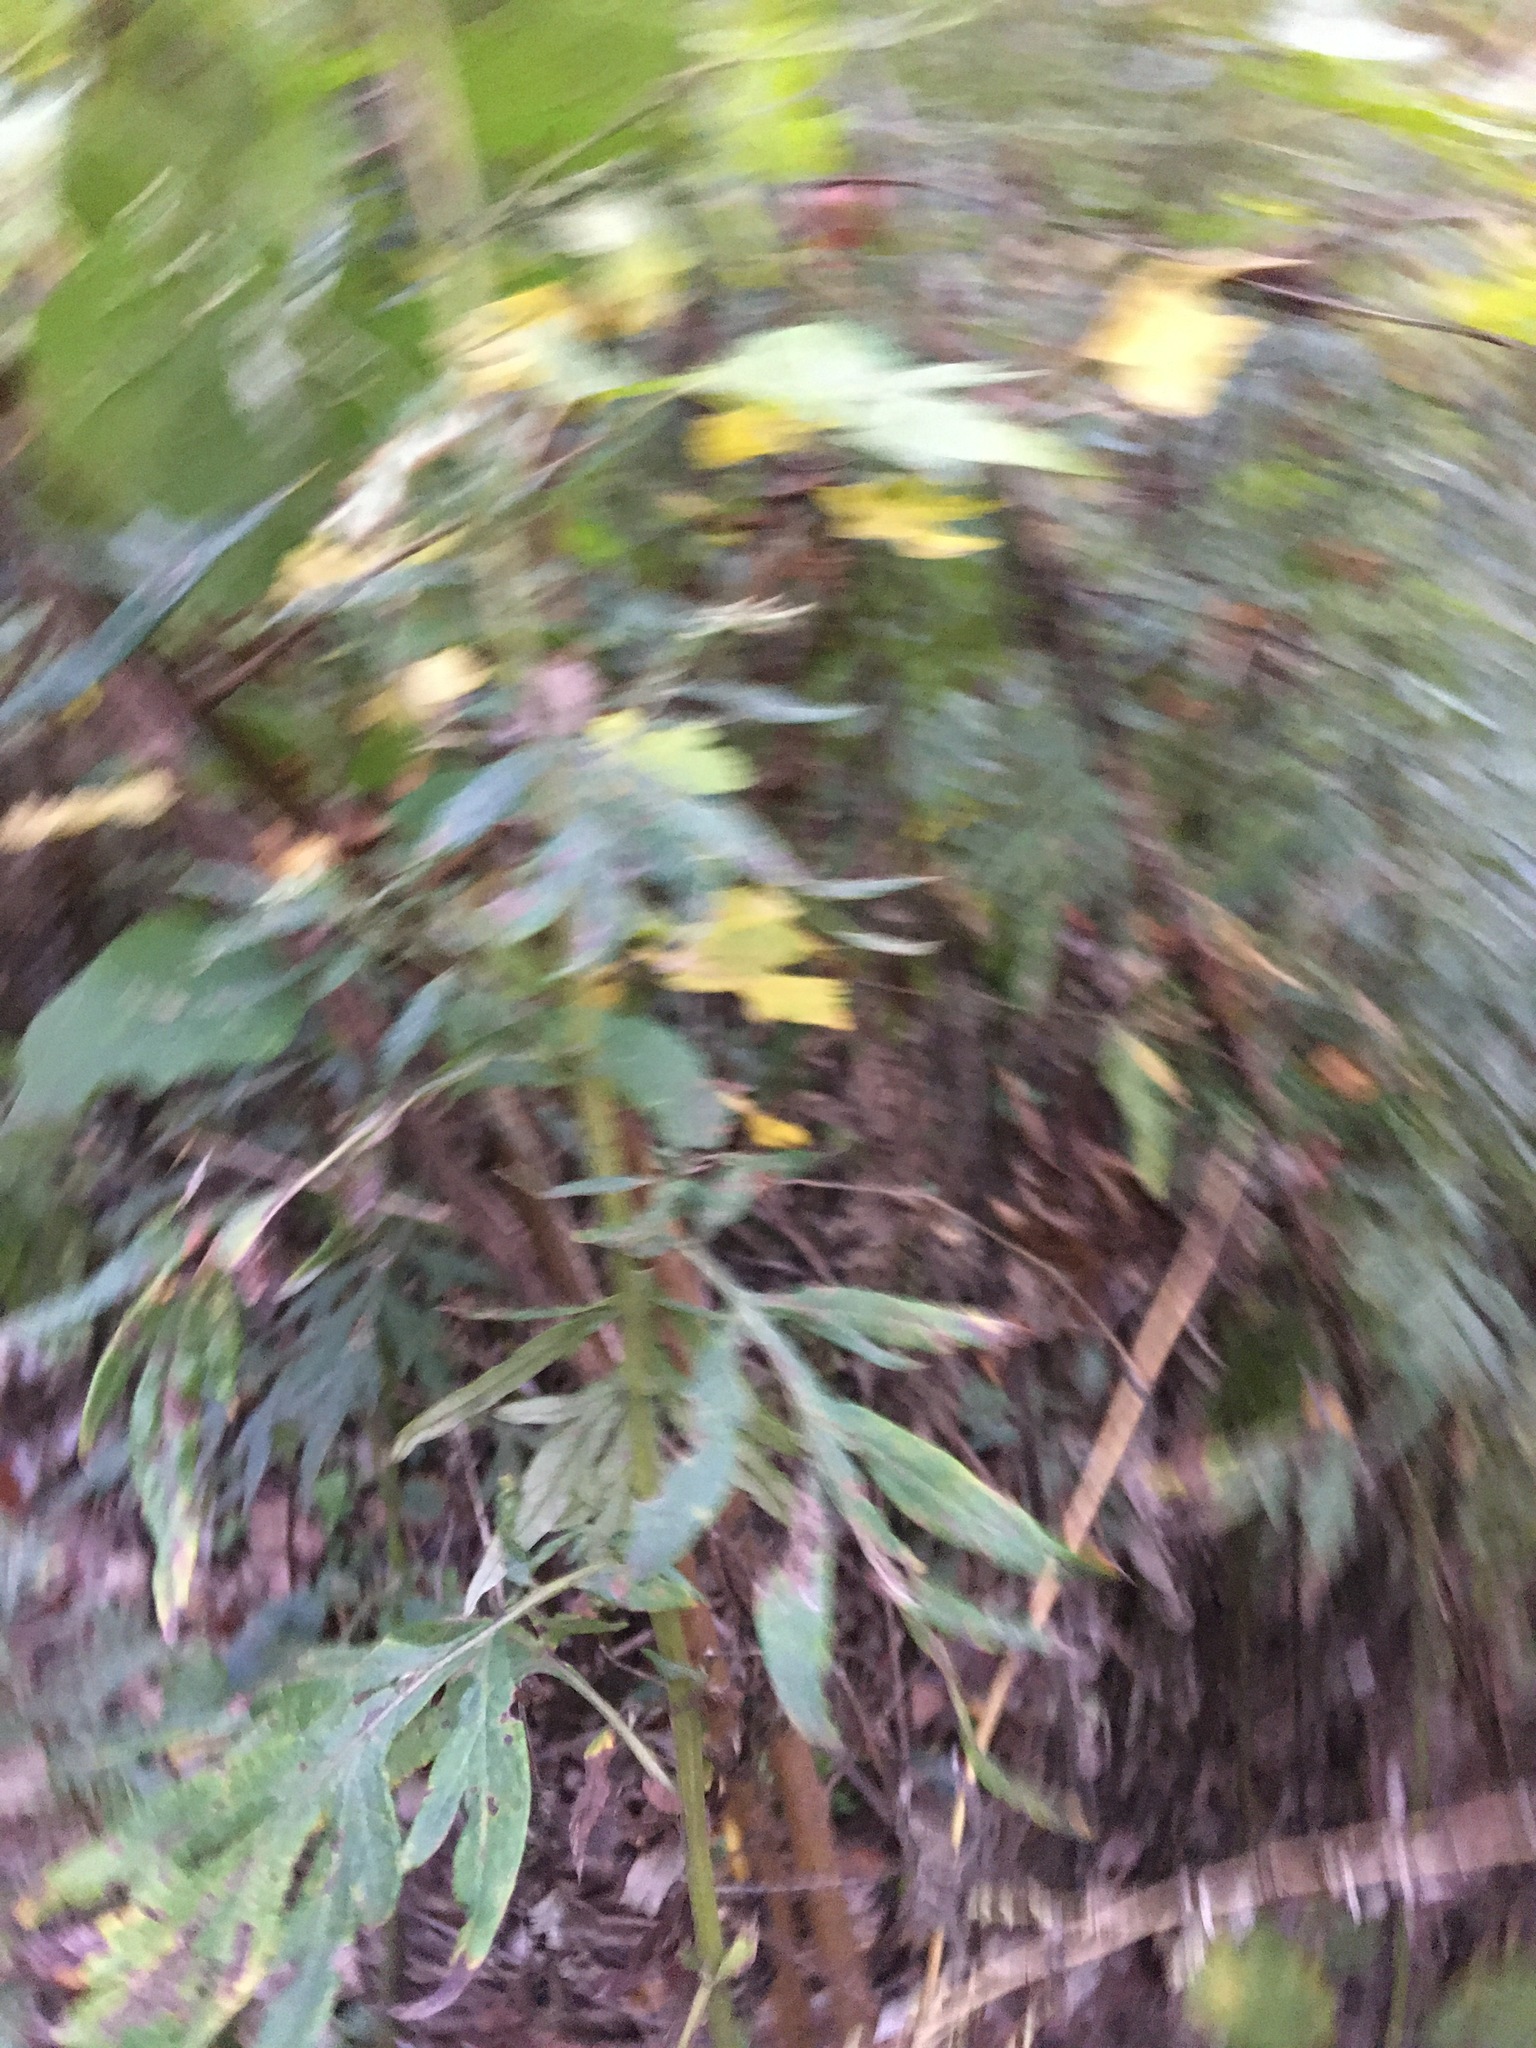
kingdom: Plantae
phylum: Tracheophyta
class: Magnoliopsida
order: Asterales
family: Asteraceae
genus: Artemisia
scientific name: Artemisia vulgaris
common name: Mugwort
